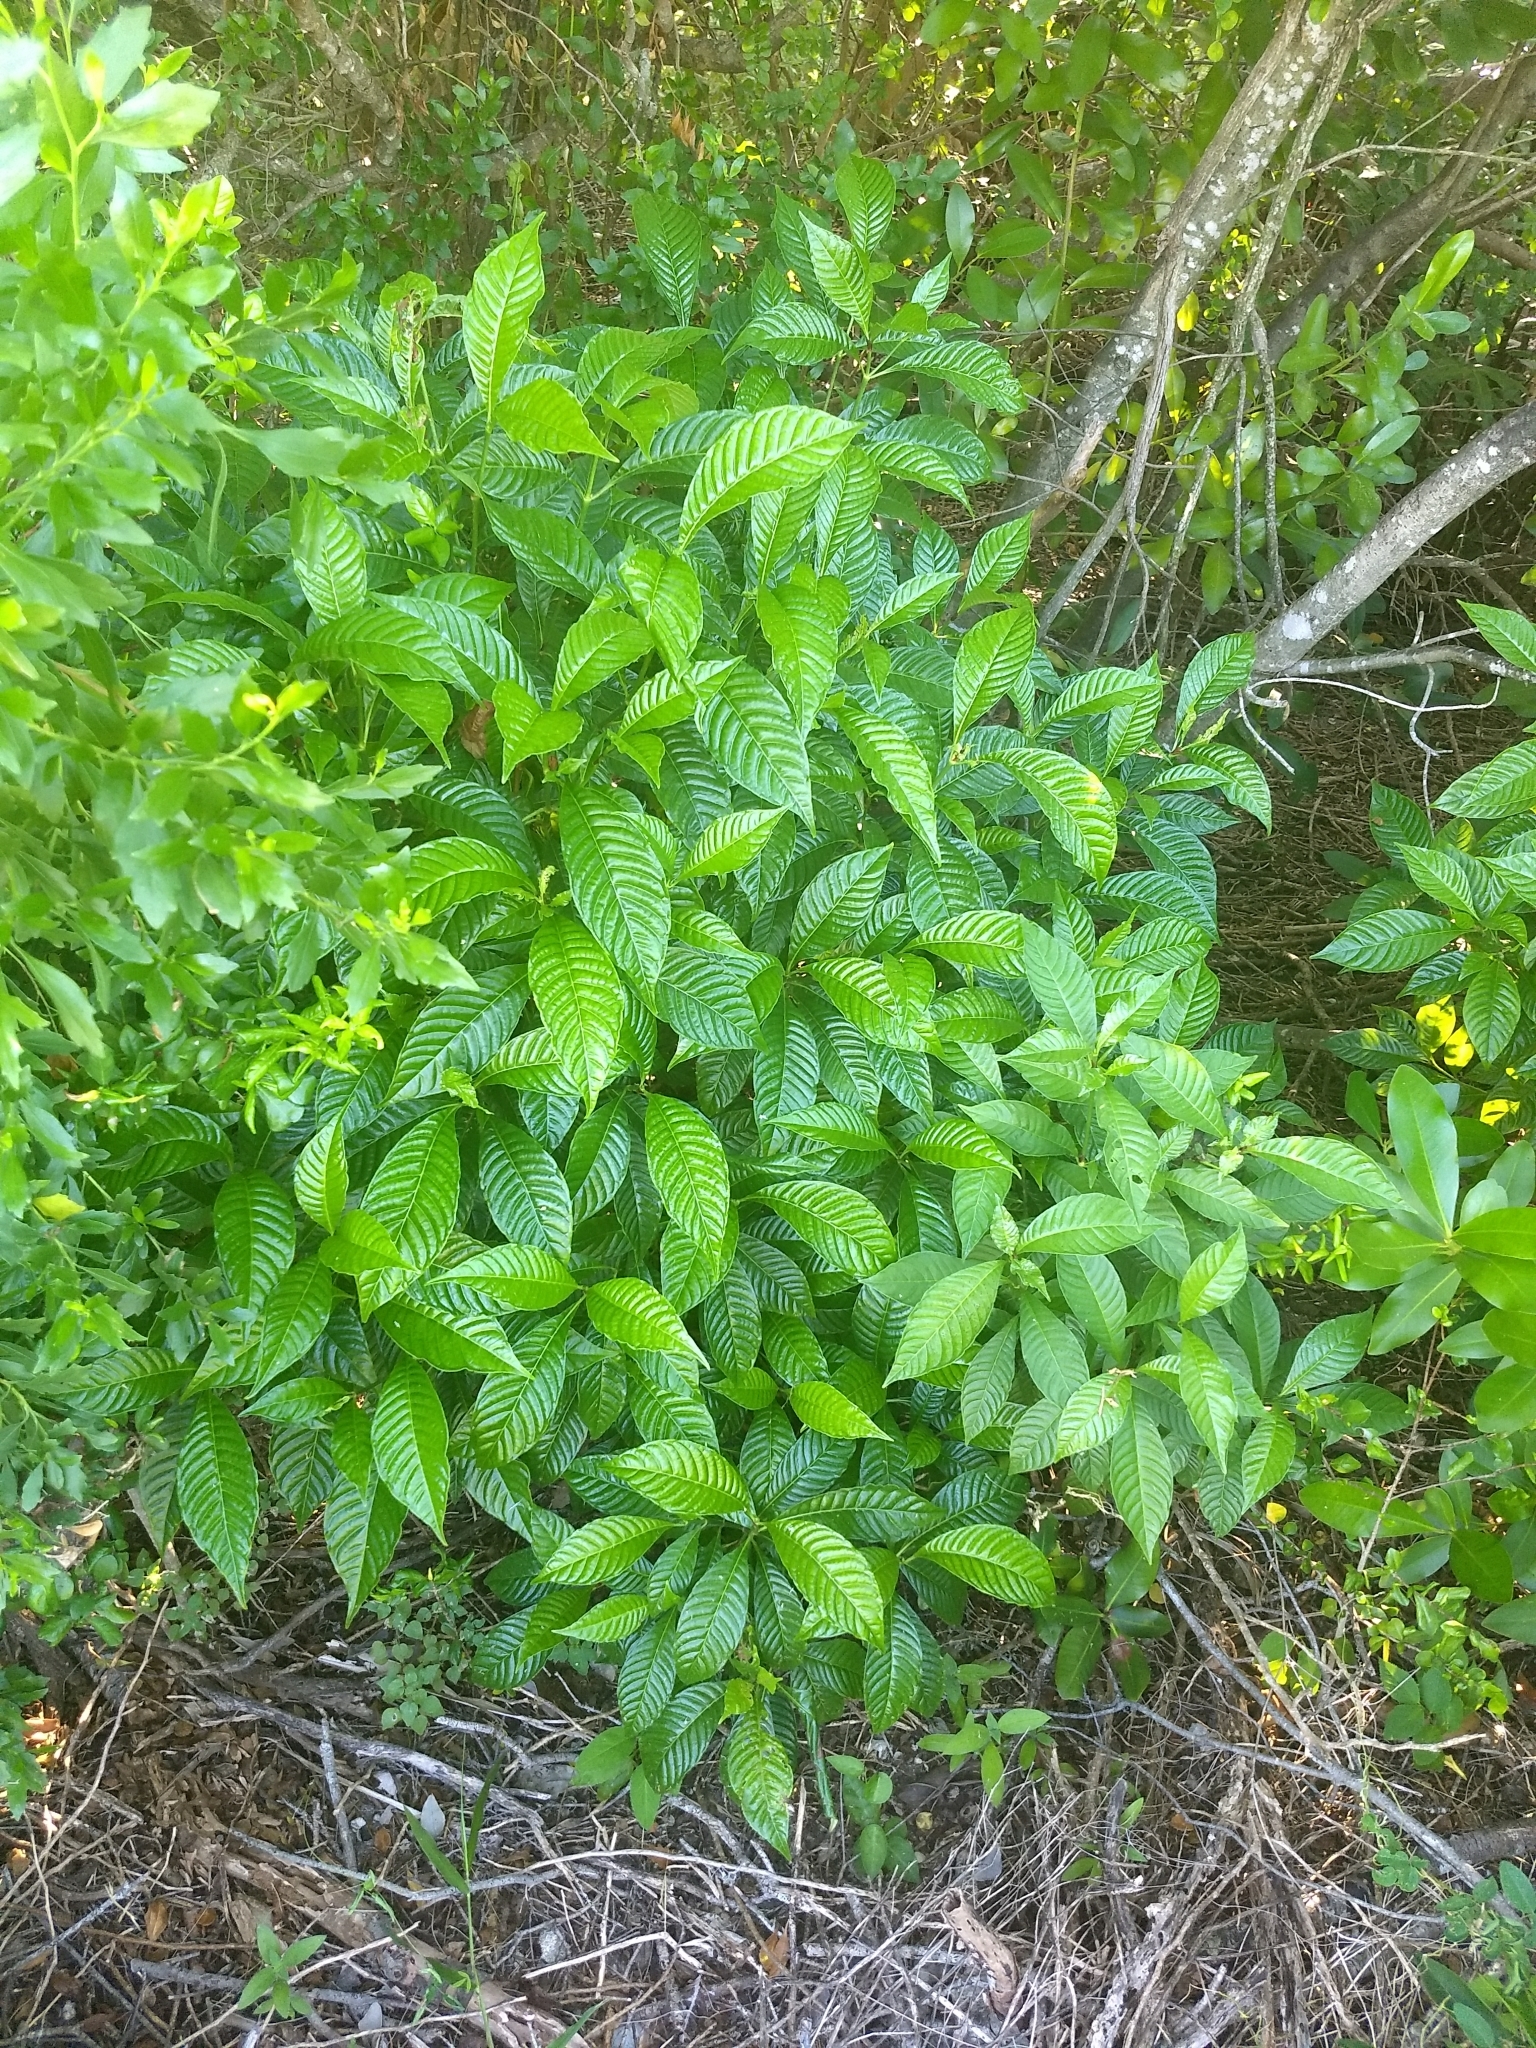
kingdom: Plantae
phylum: Tracheophyta
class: Magnoliopsida
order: Gentianales
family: Rubiaceae
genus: Psychotria
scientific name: Psychotria nervosa
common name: Bastard cankerberry
